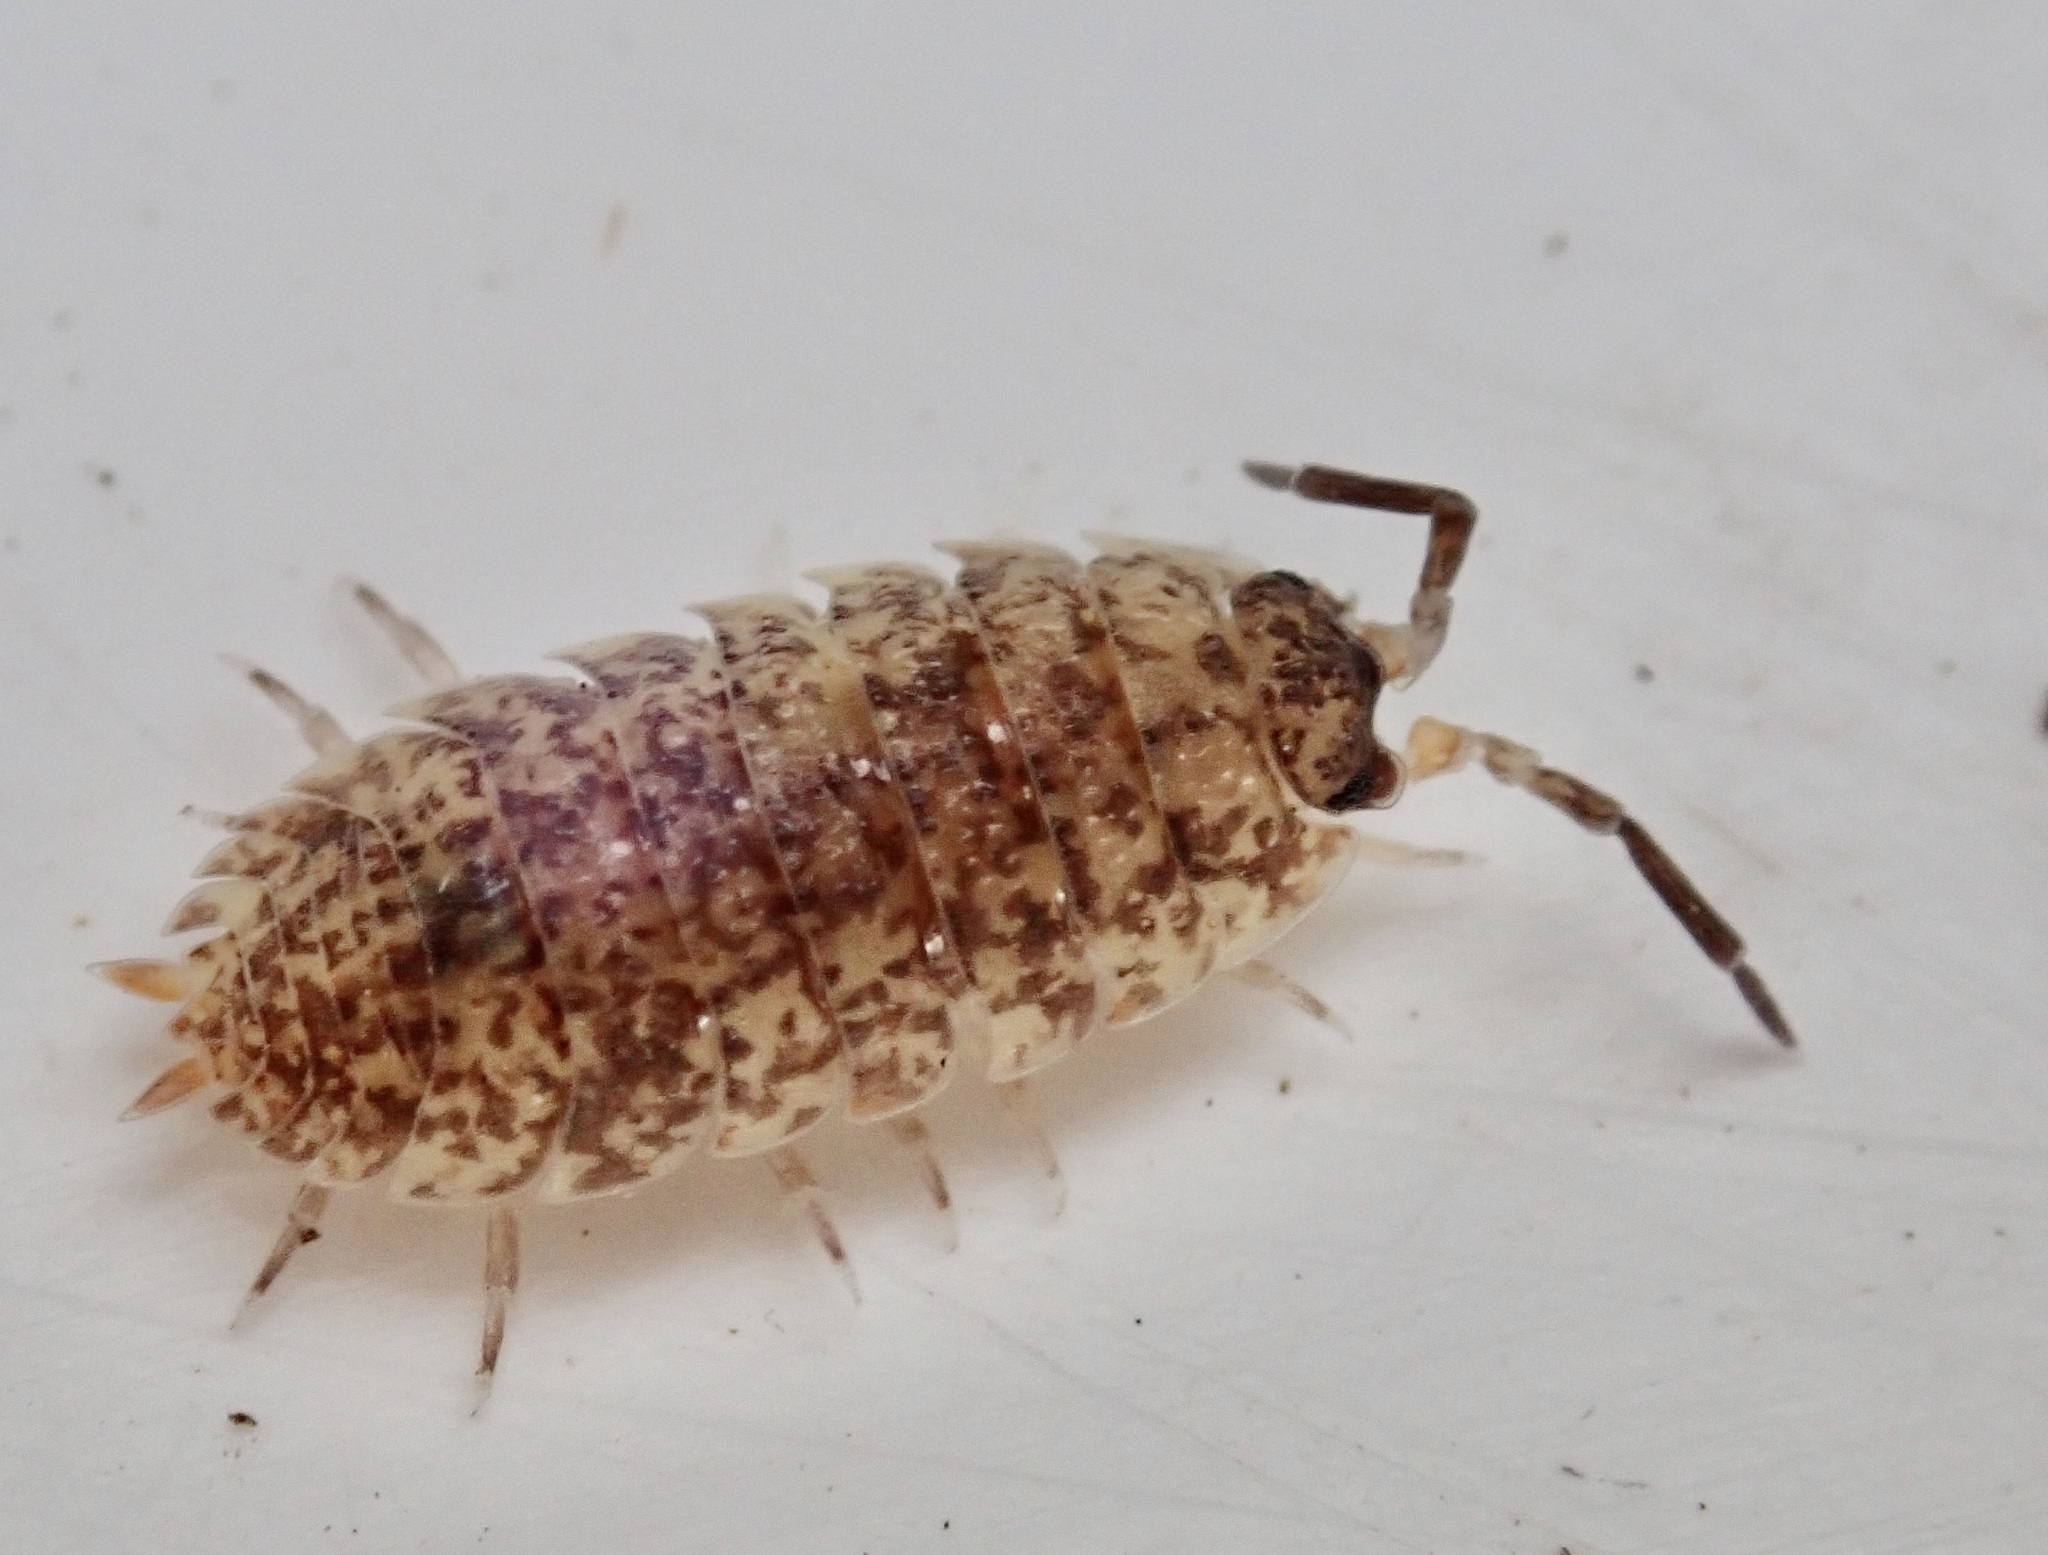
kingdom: Animalia
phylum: Arthropoda
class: Malacostraca
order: Isopoda
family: Porcellionidae
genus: Porcellio
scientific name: Porcellio scaber
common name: Common rough woodlouse
